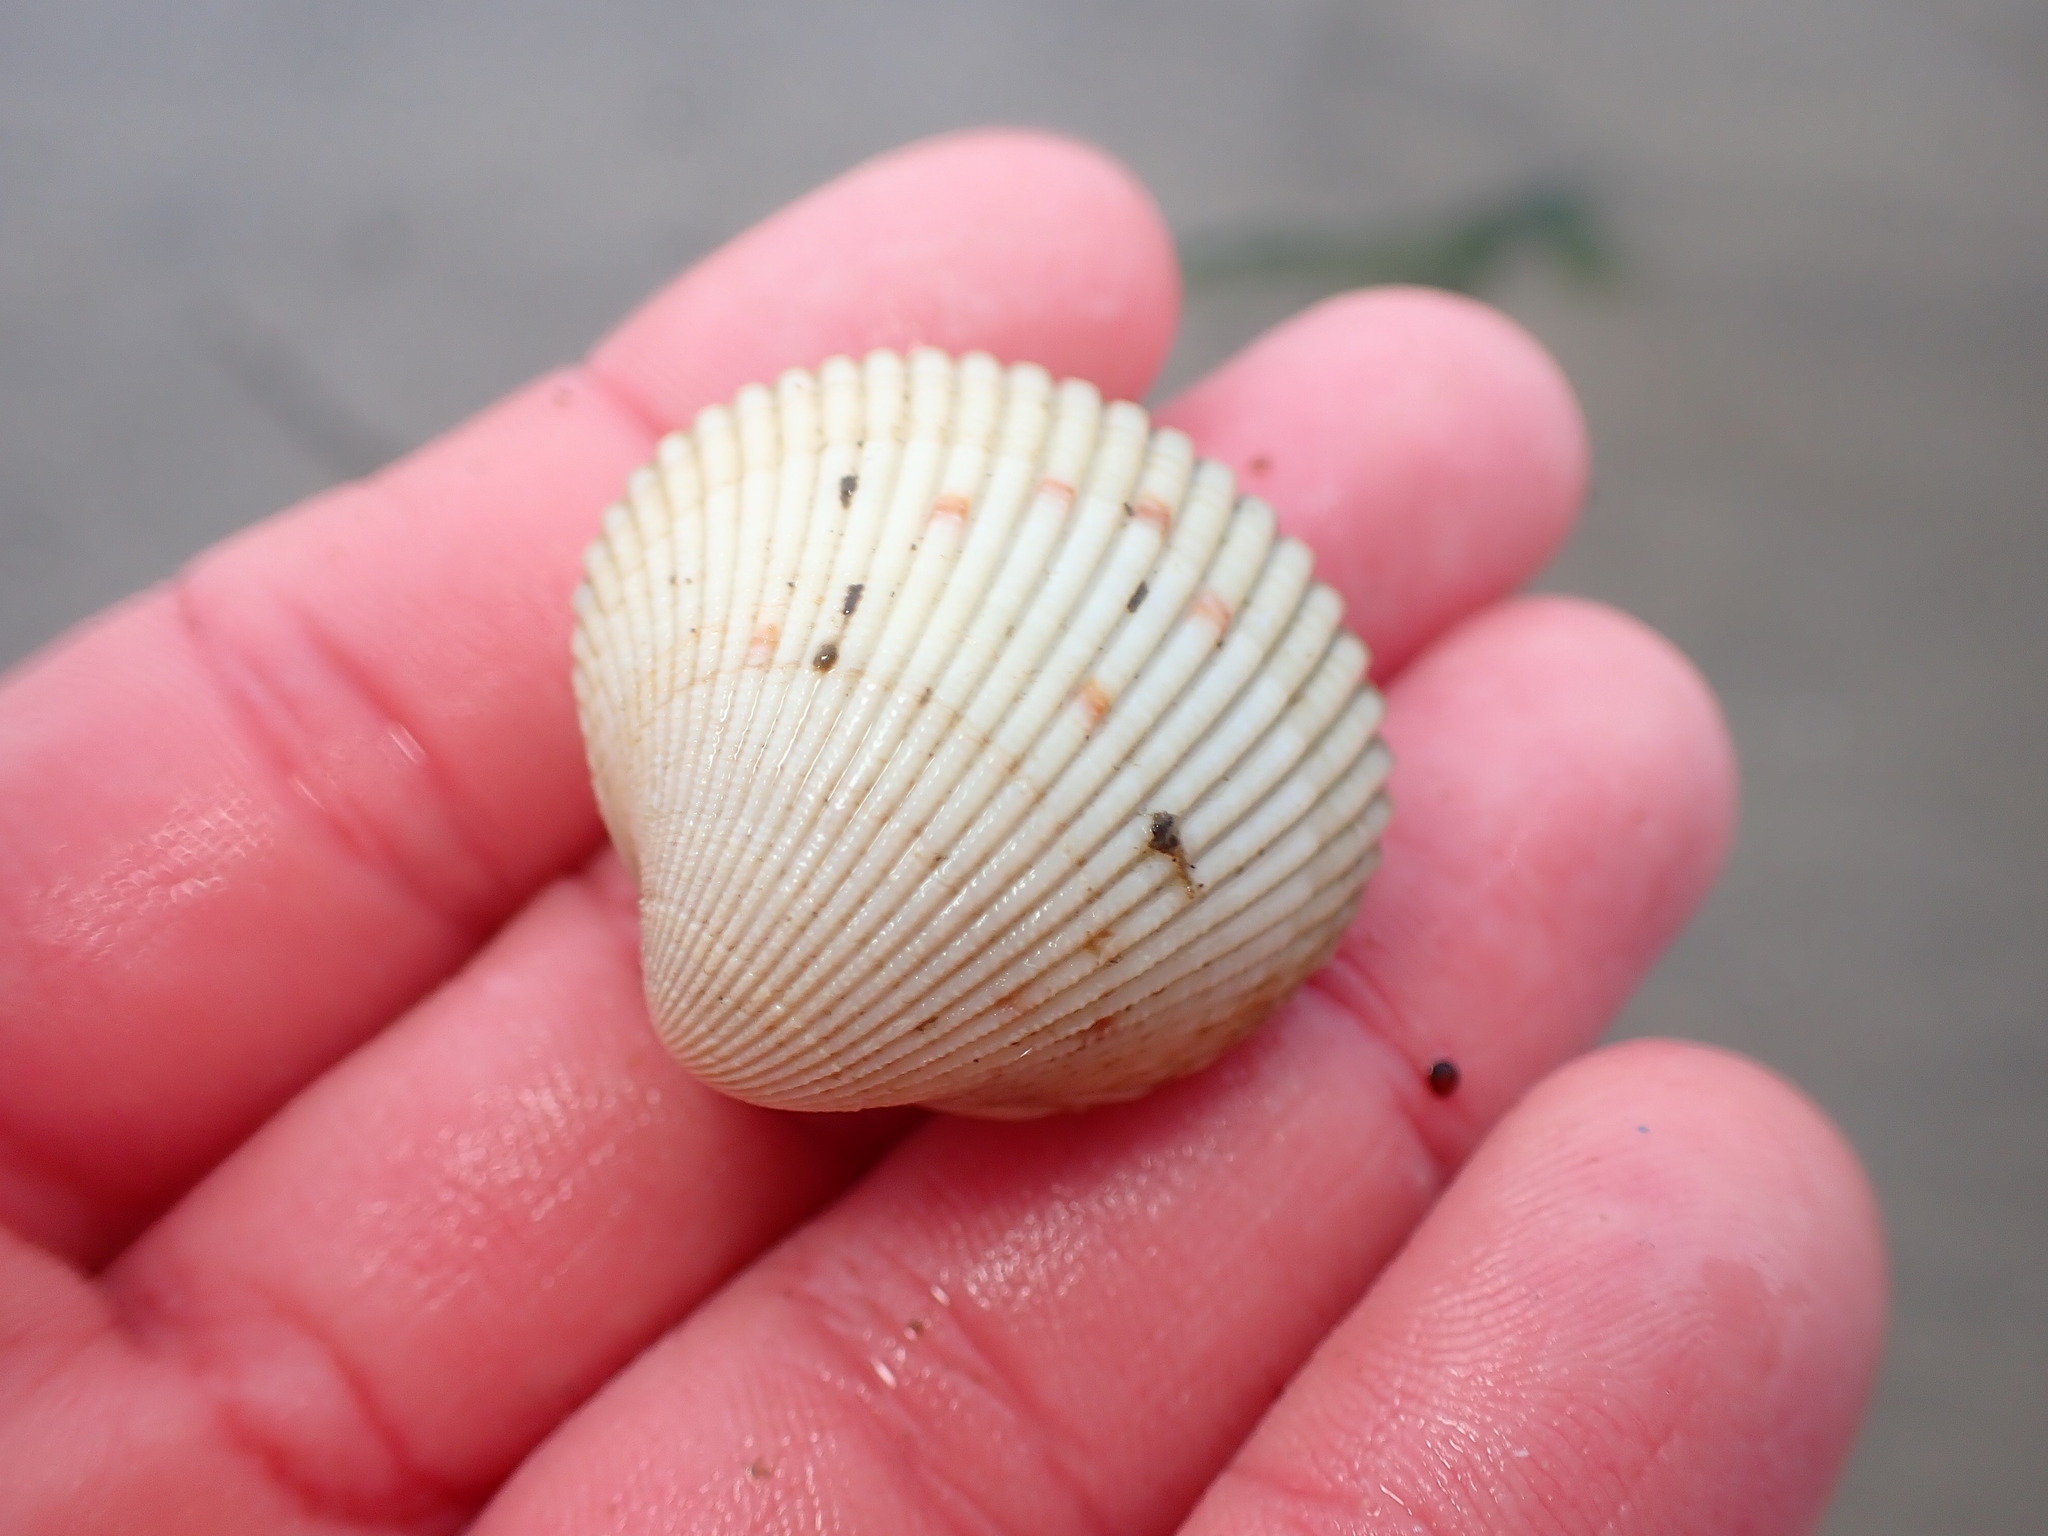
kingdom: Animalia
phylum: Mollusca
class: Bivalvia
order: Cardiida
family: Cardiidae
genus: Clinocardium
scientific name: Clinocardium nuttallii
